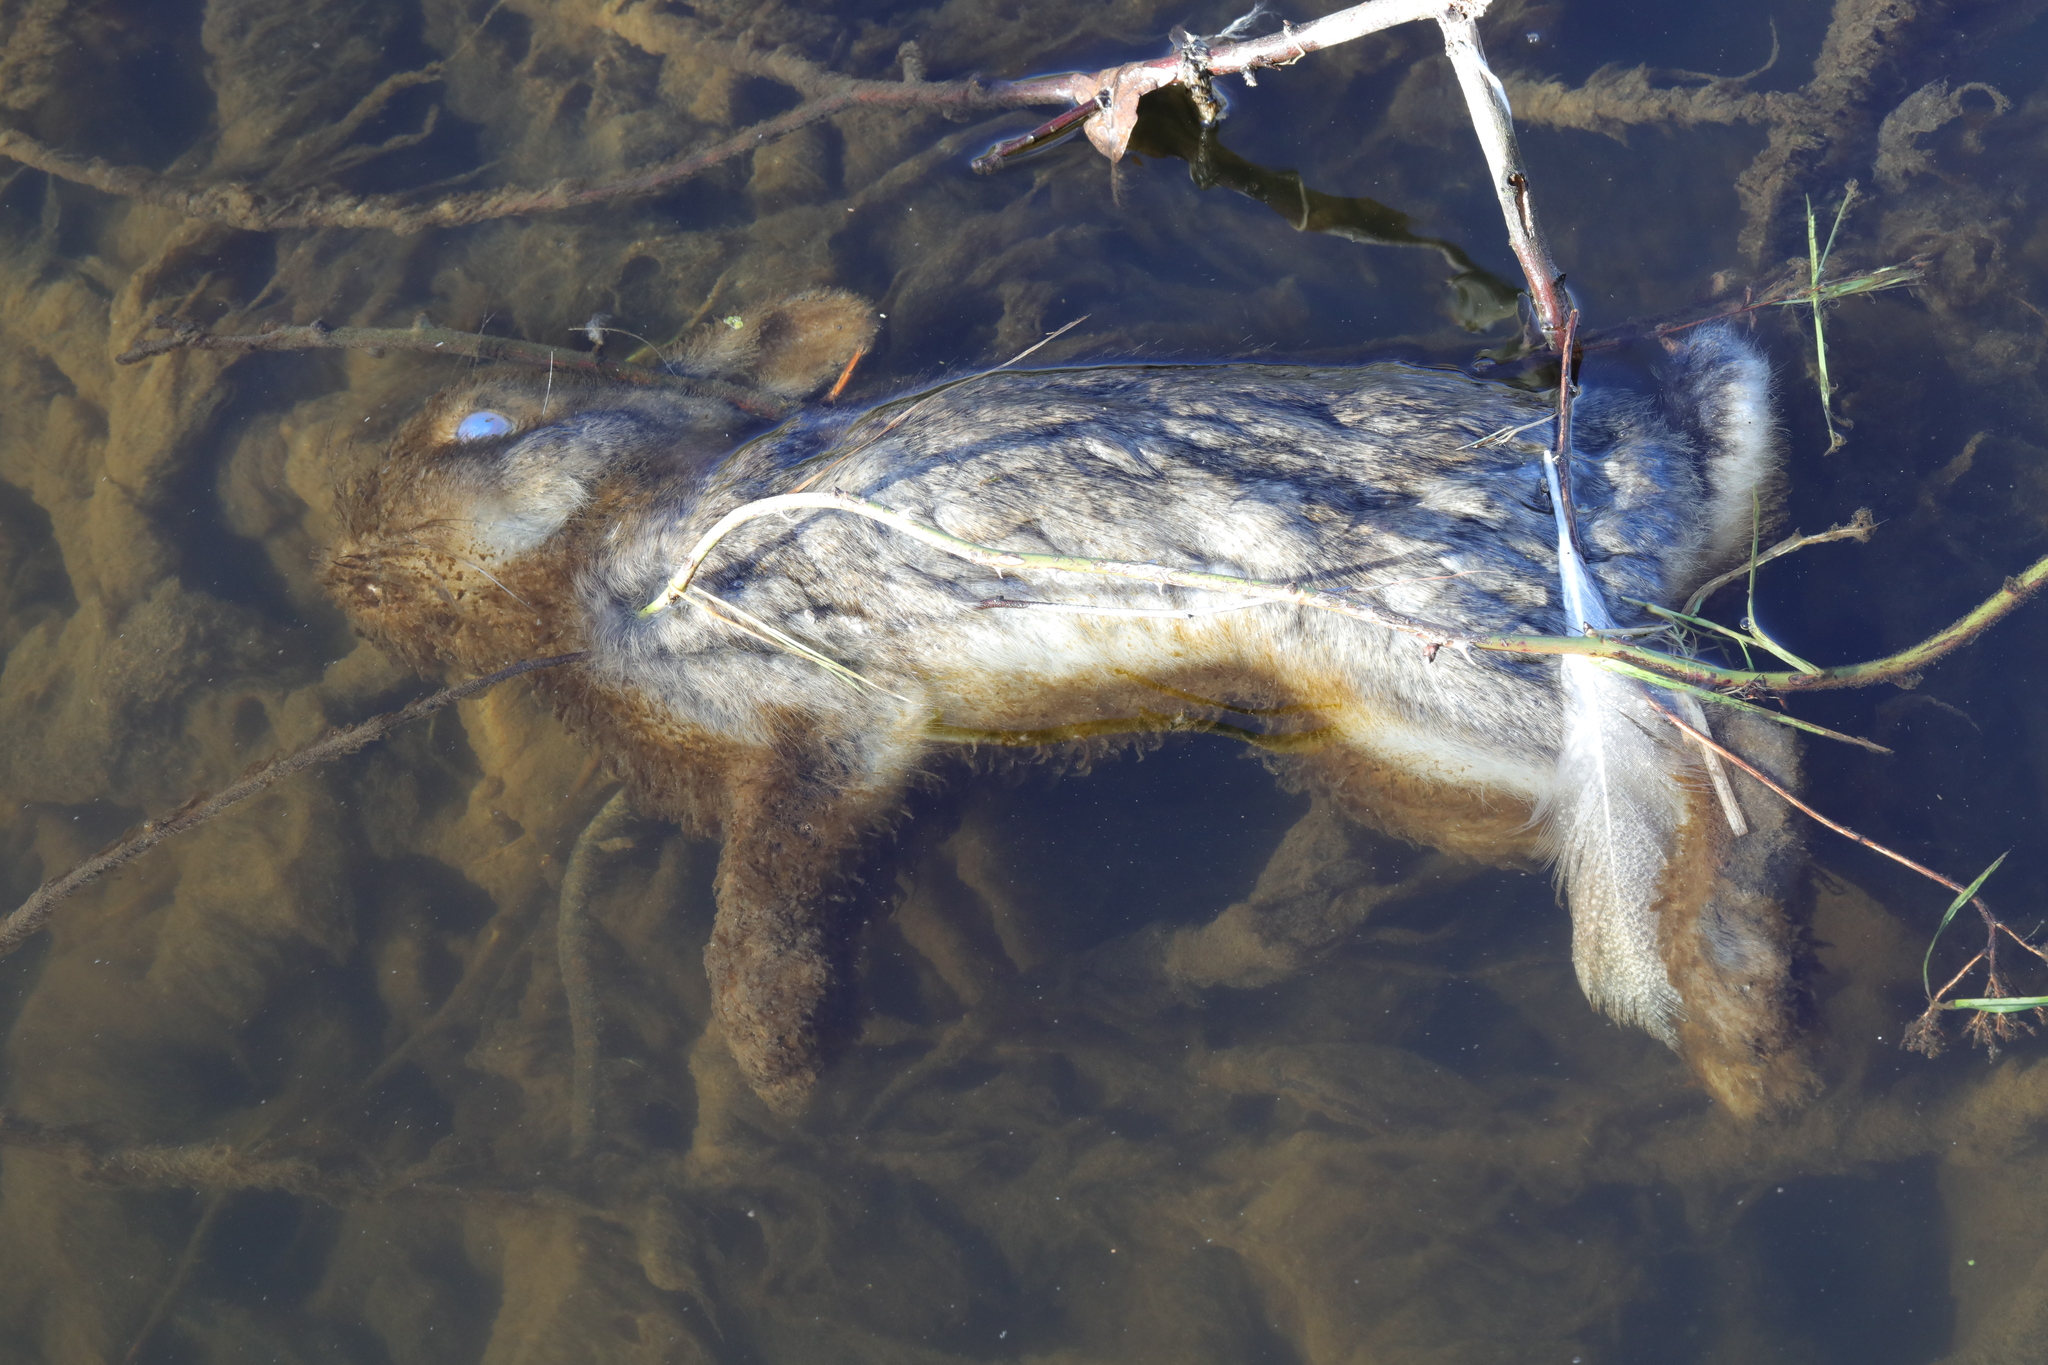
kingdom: Animalia
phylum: Chordata
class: Mammalia
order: Lagomorpha
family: Leporidae
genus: Oryctolagus
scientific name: Oryctolagus cuniculus
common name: European rabbit
